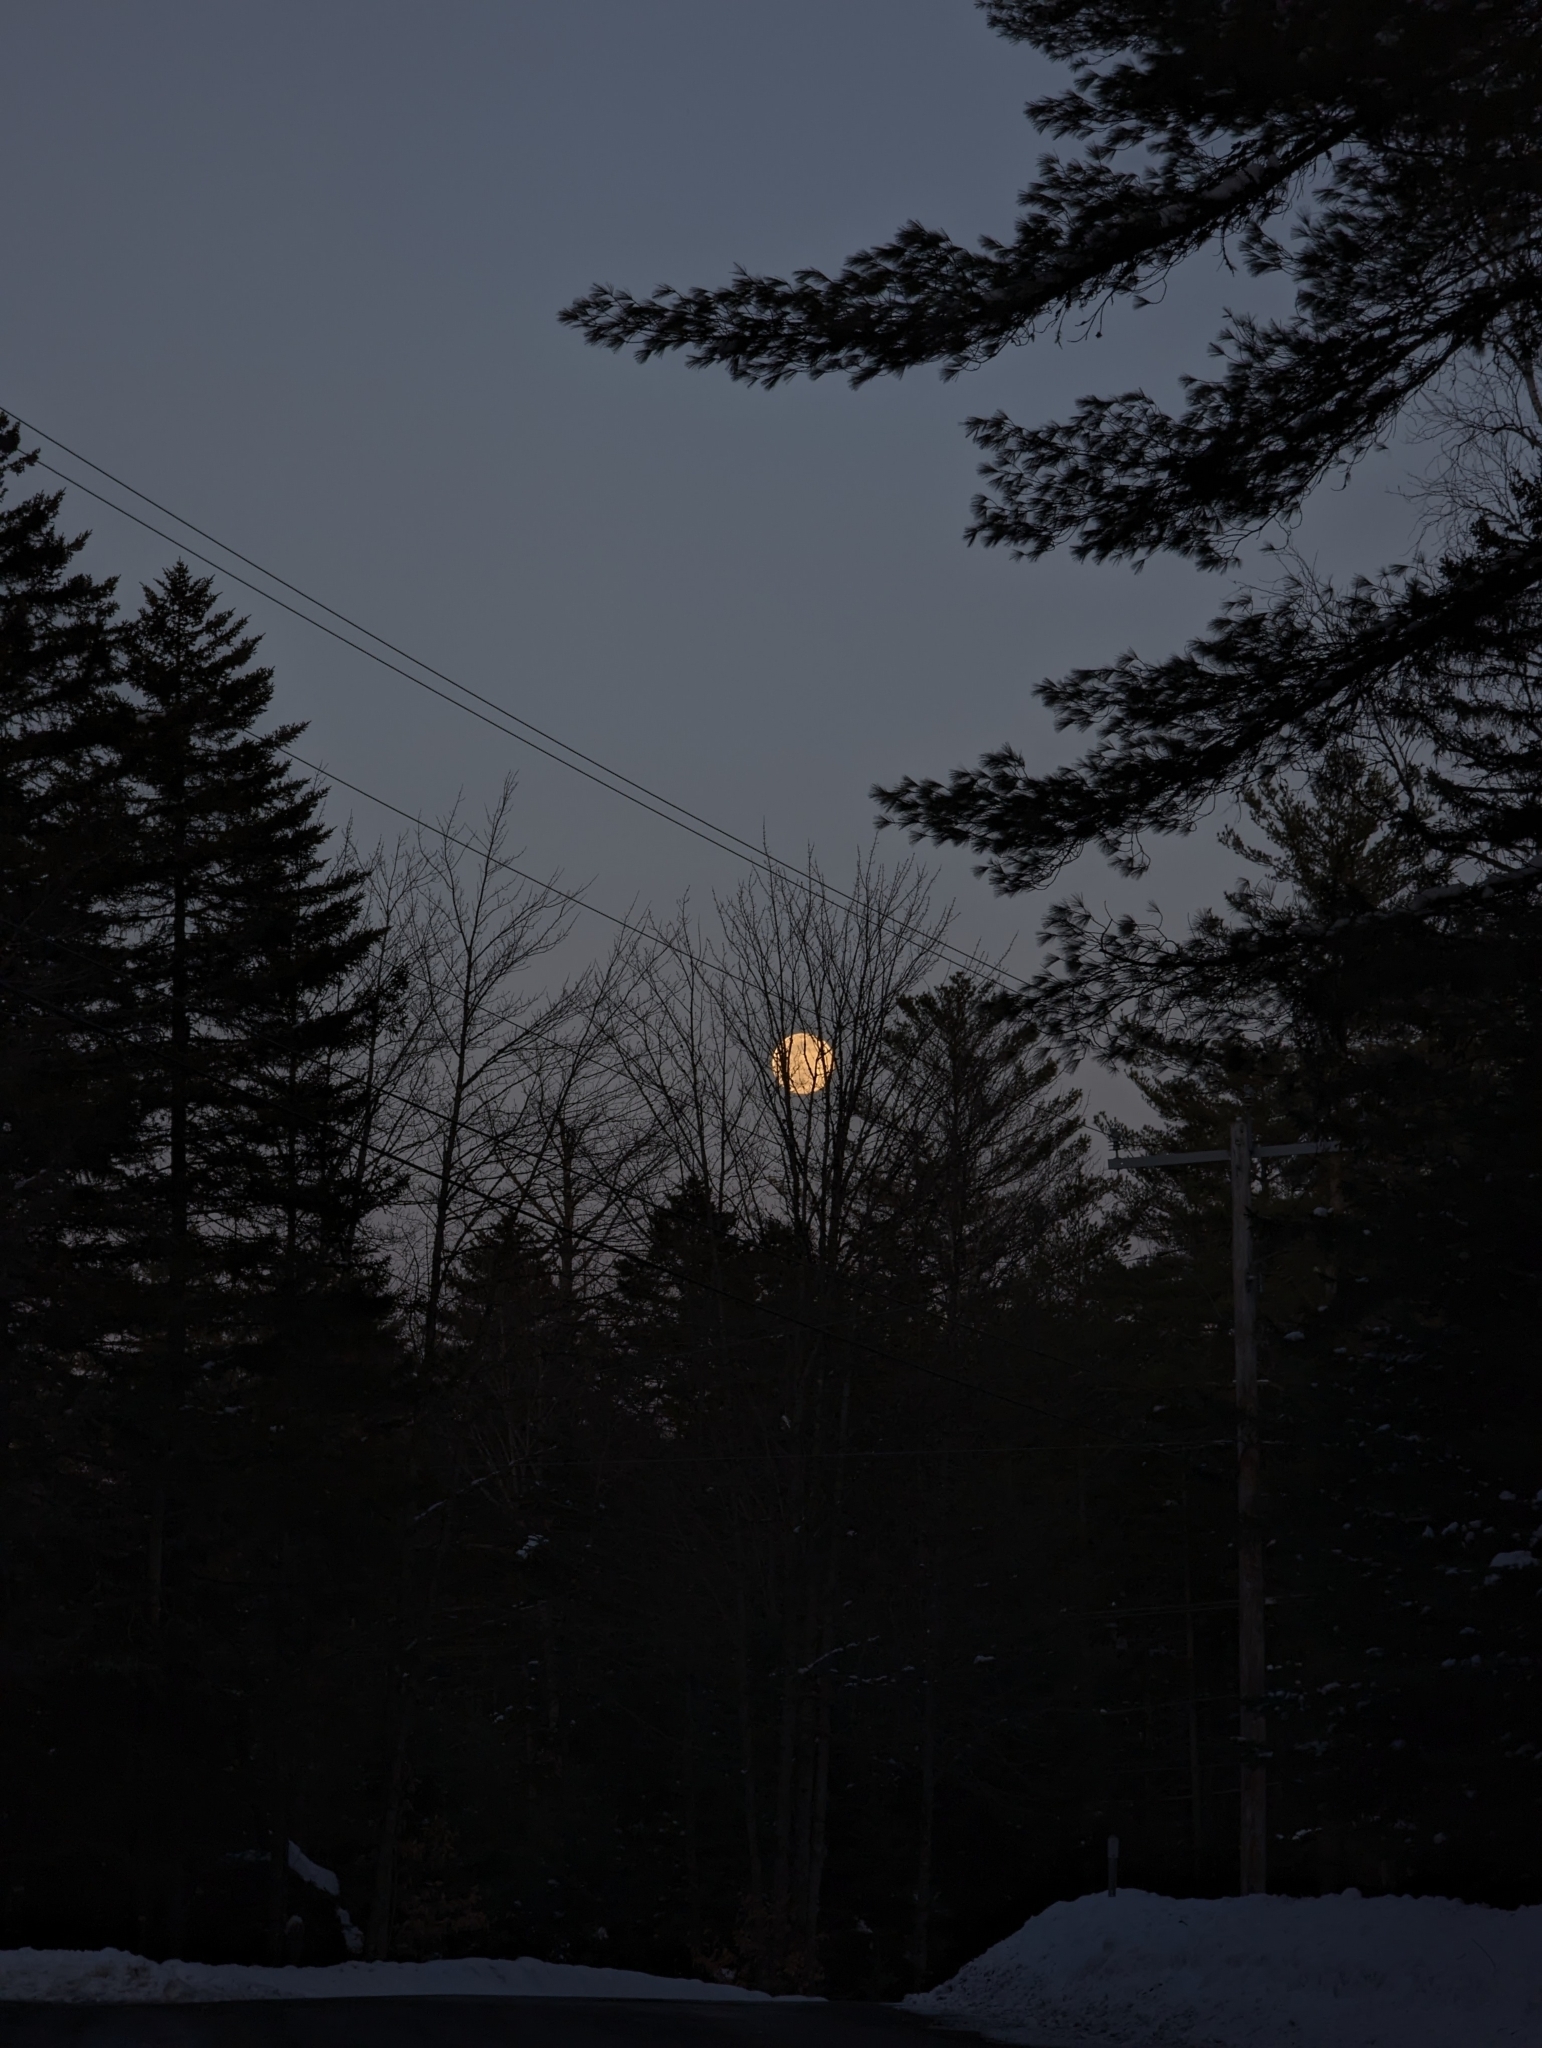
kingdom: Plantae
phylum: Tracheophyta
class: Pinopsida
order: Pinales
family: Pinaceae
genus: Pinus
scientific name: Pinus strobus
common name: Weymouth pine
